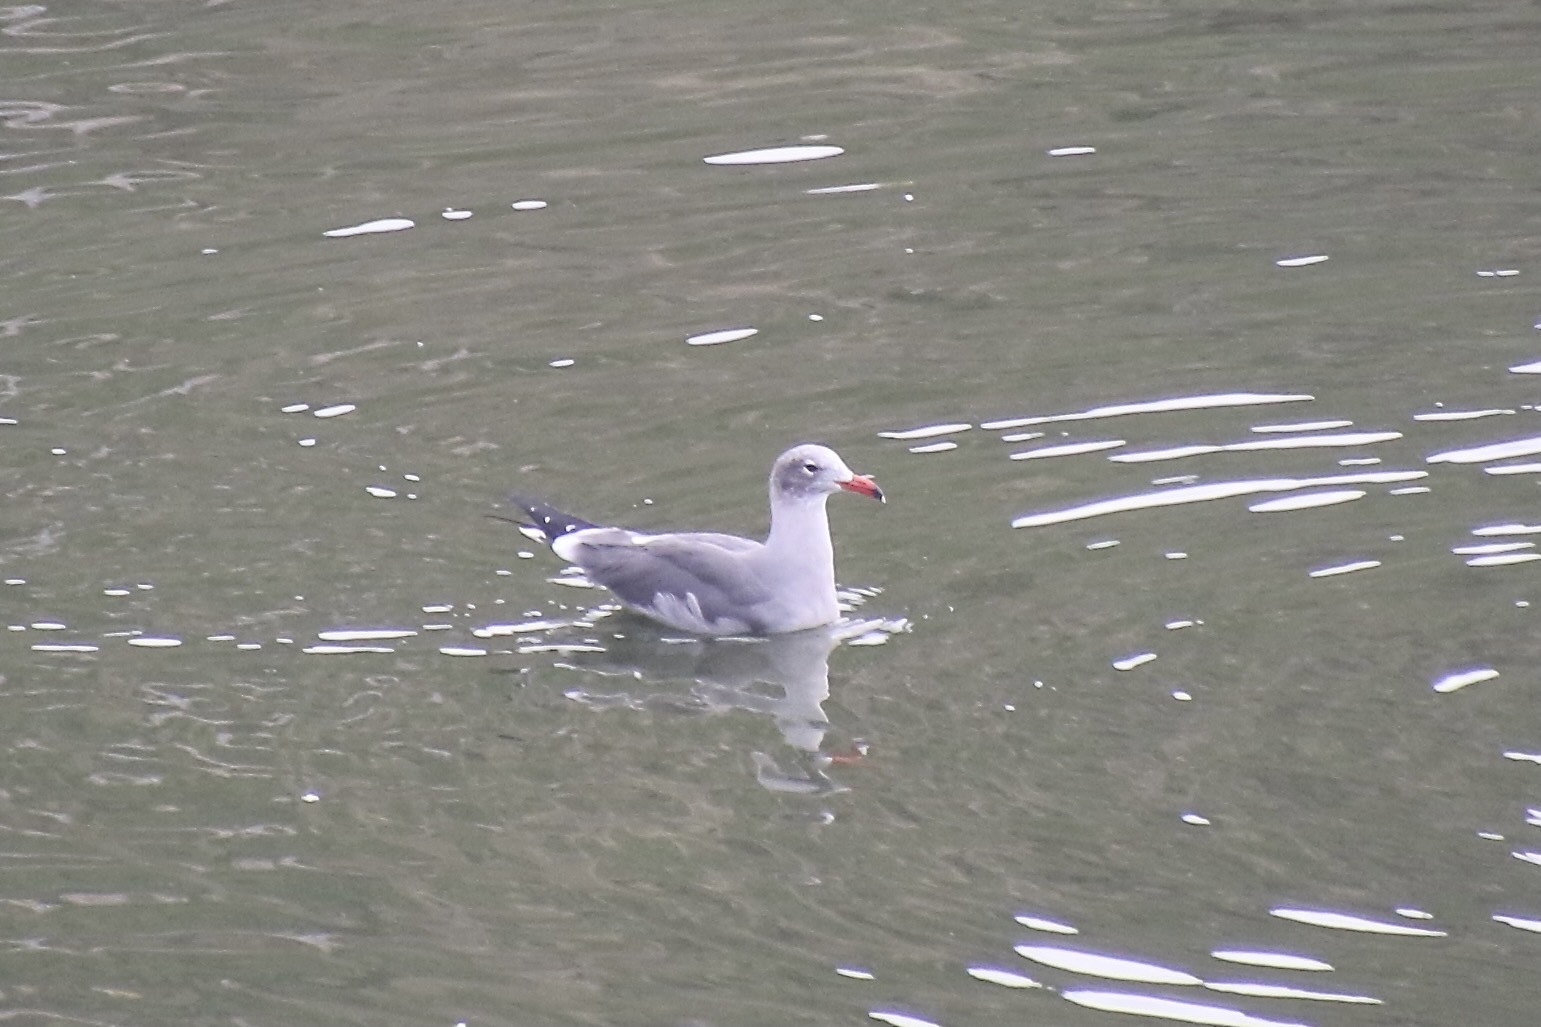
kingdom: Animalia
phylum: Chordata
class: Aves
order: Charadriiformes
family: Laridae
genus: Larus
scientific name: Larus heermanni
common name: Heermann's gull
